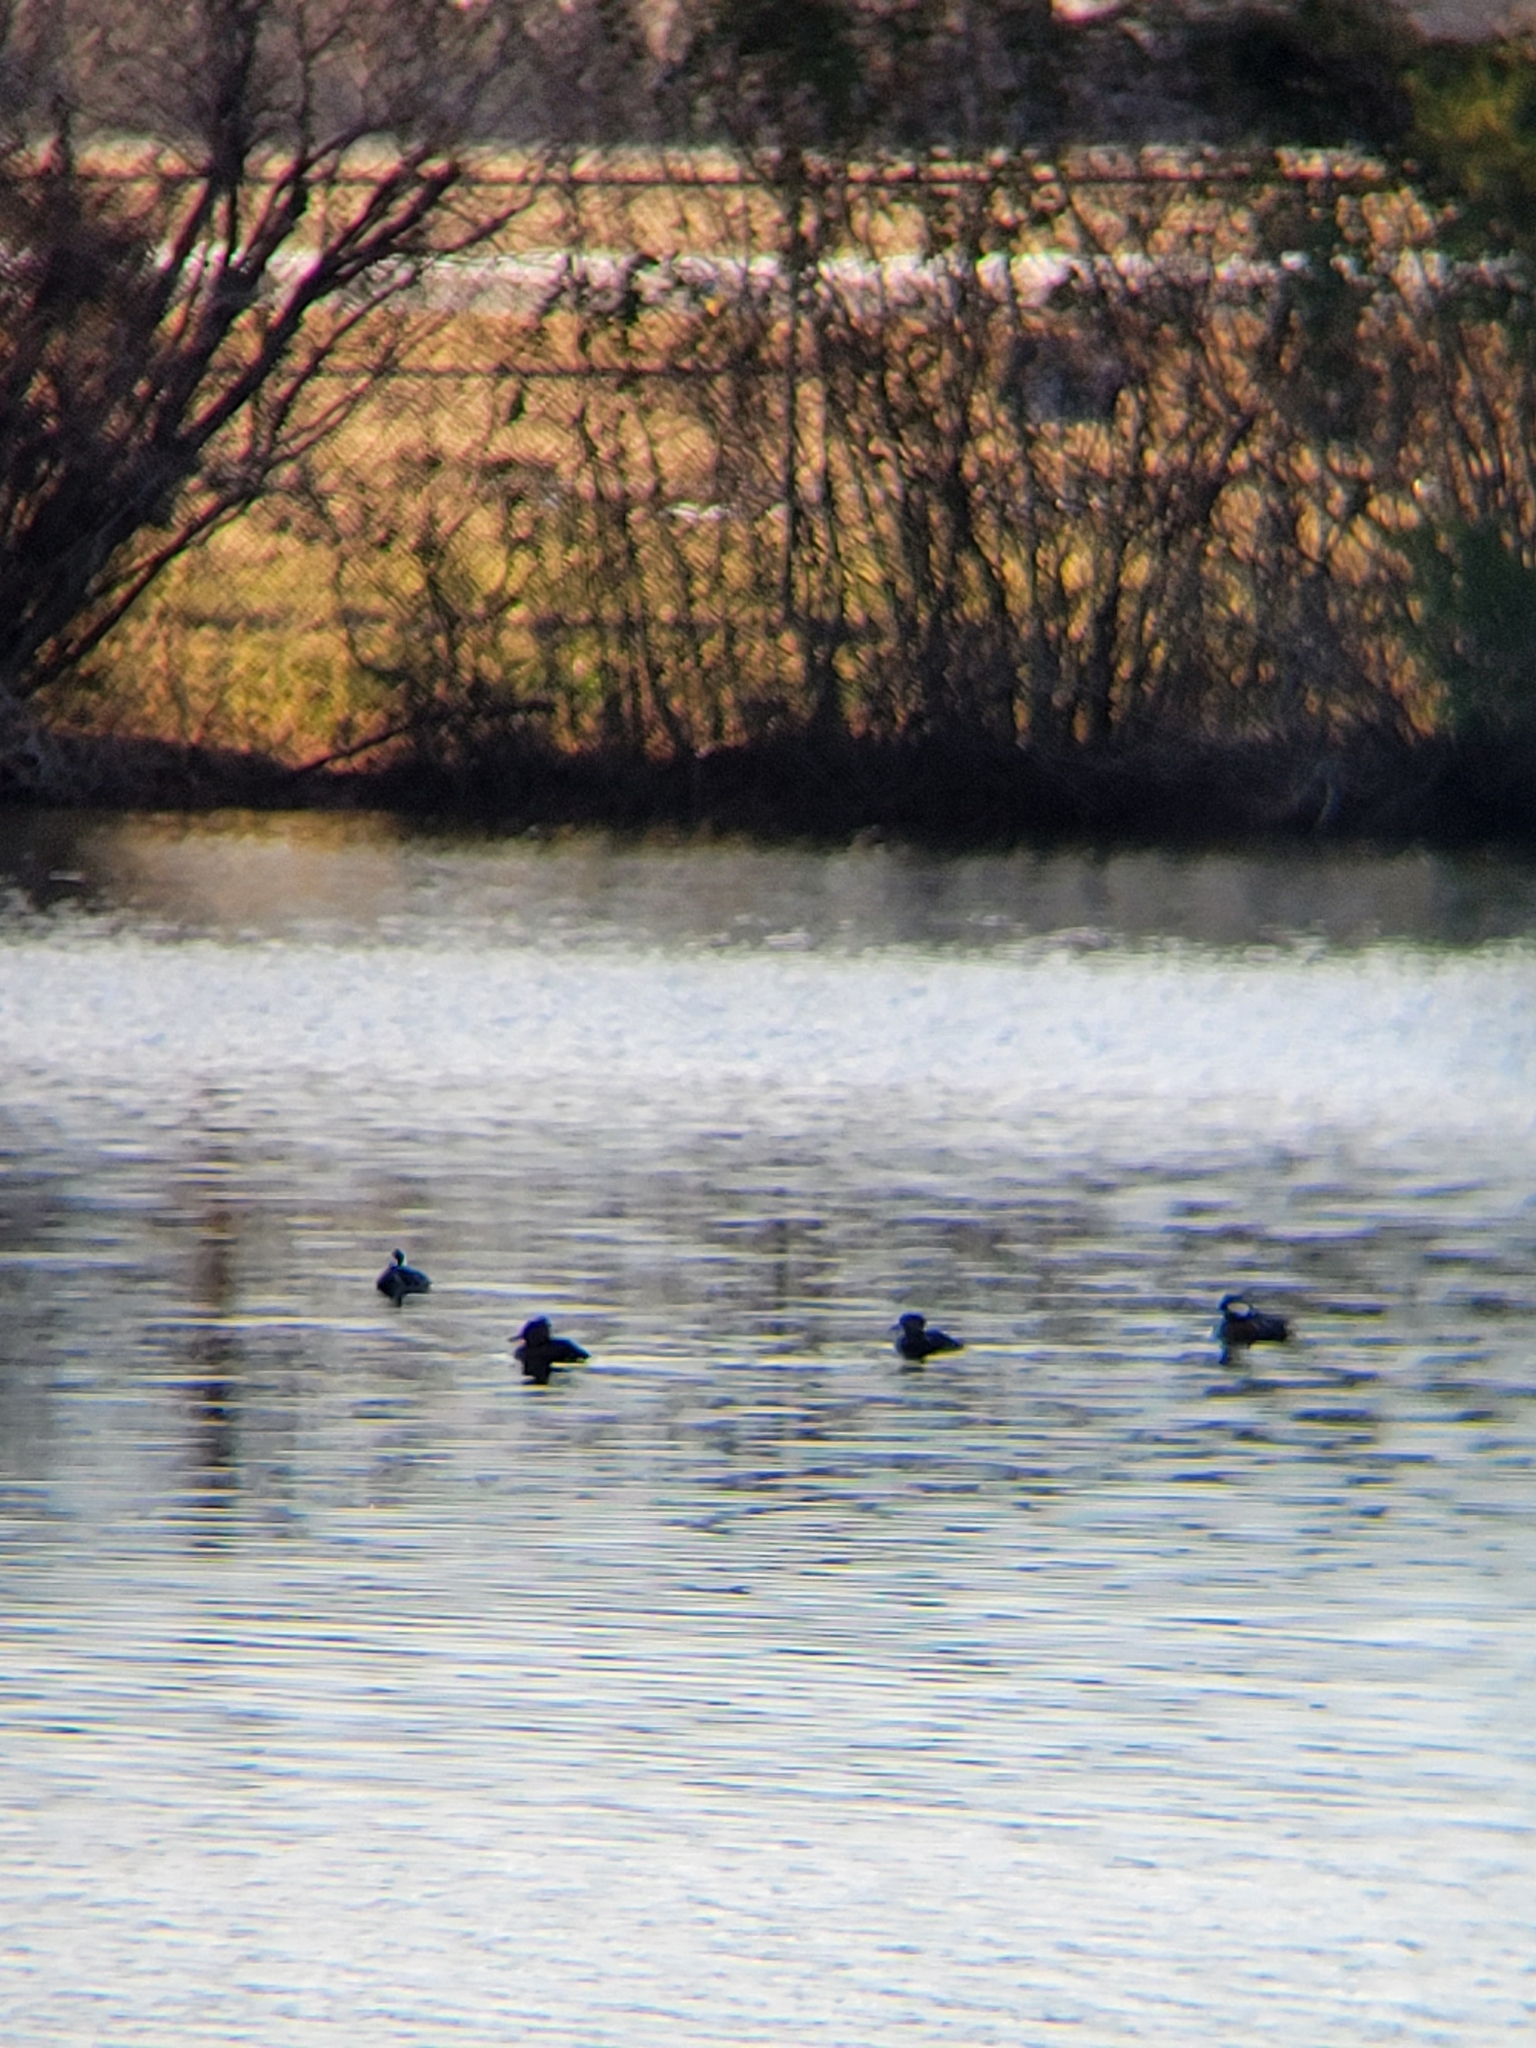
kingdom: Animalia
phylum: Chordata
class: Aves
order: Anseriformes
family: Anatidae
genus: Lophodytes
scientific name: Lophodytes cucullatus
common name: Hooded merganser
